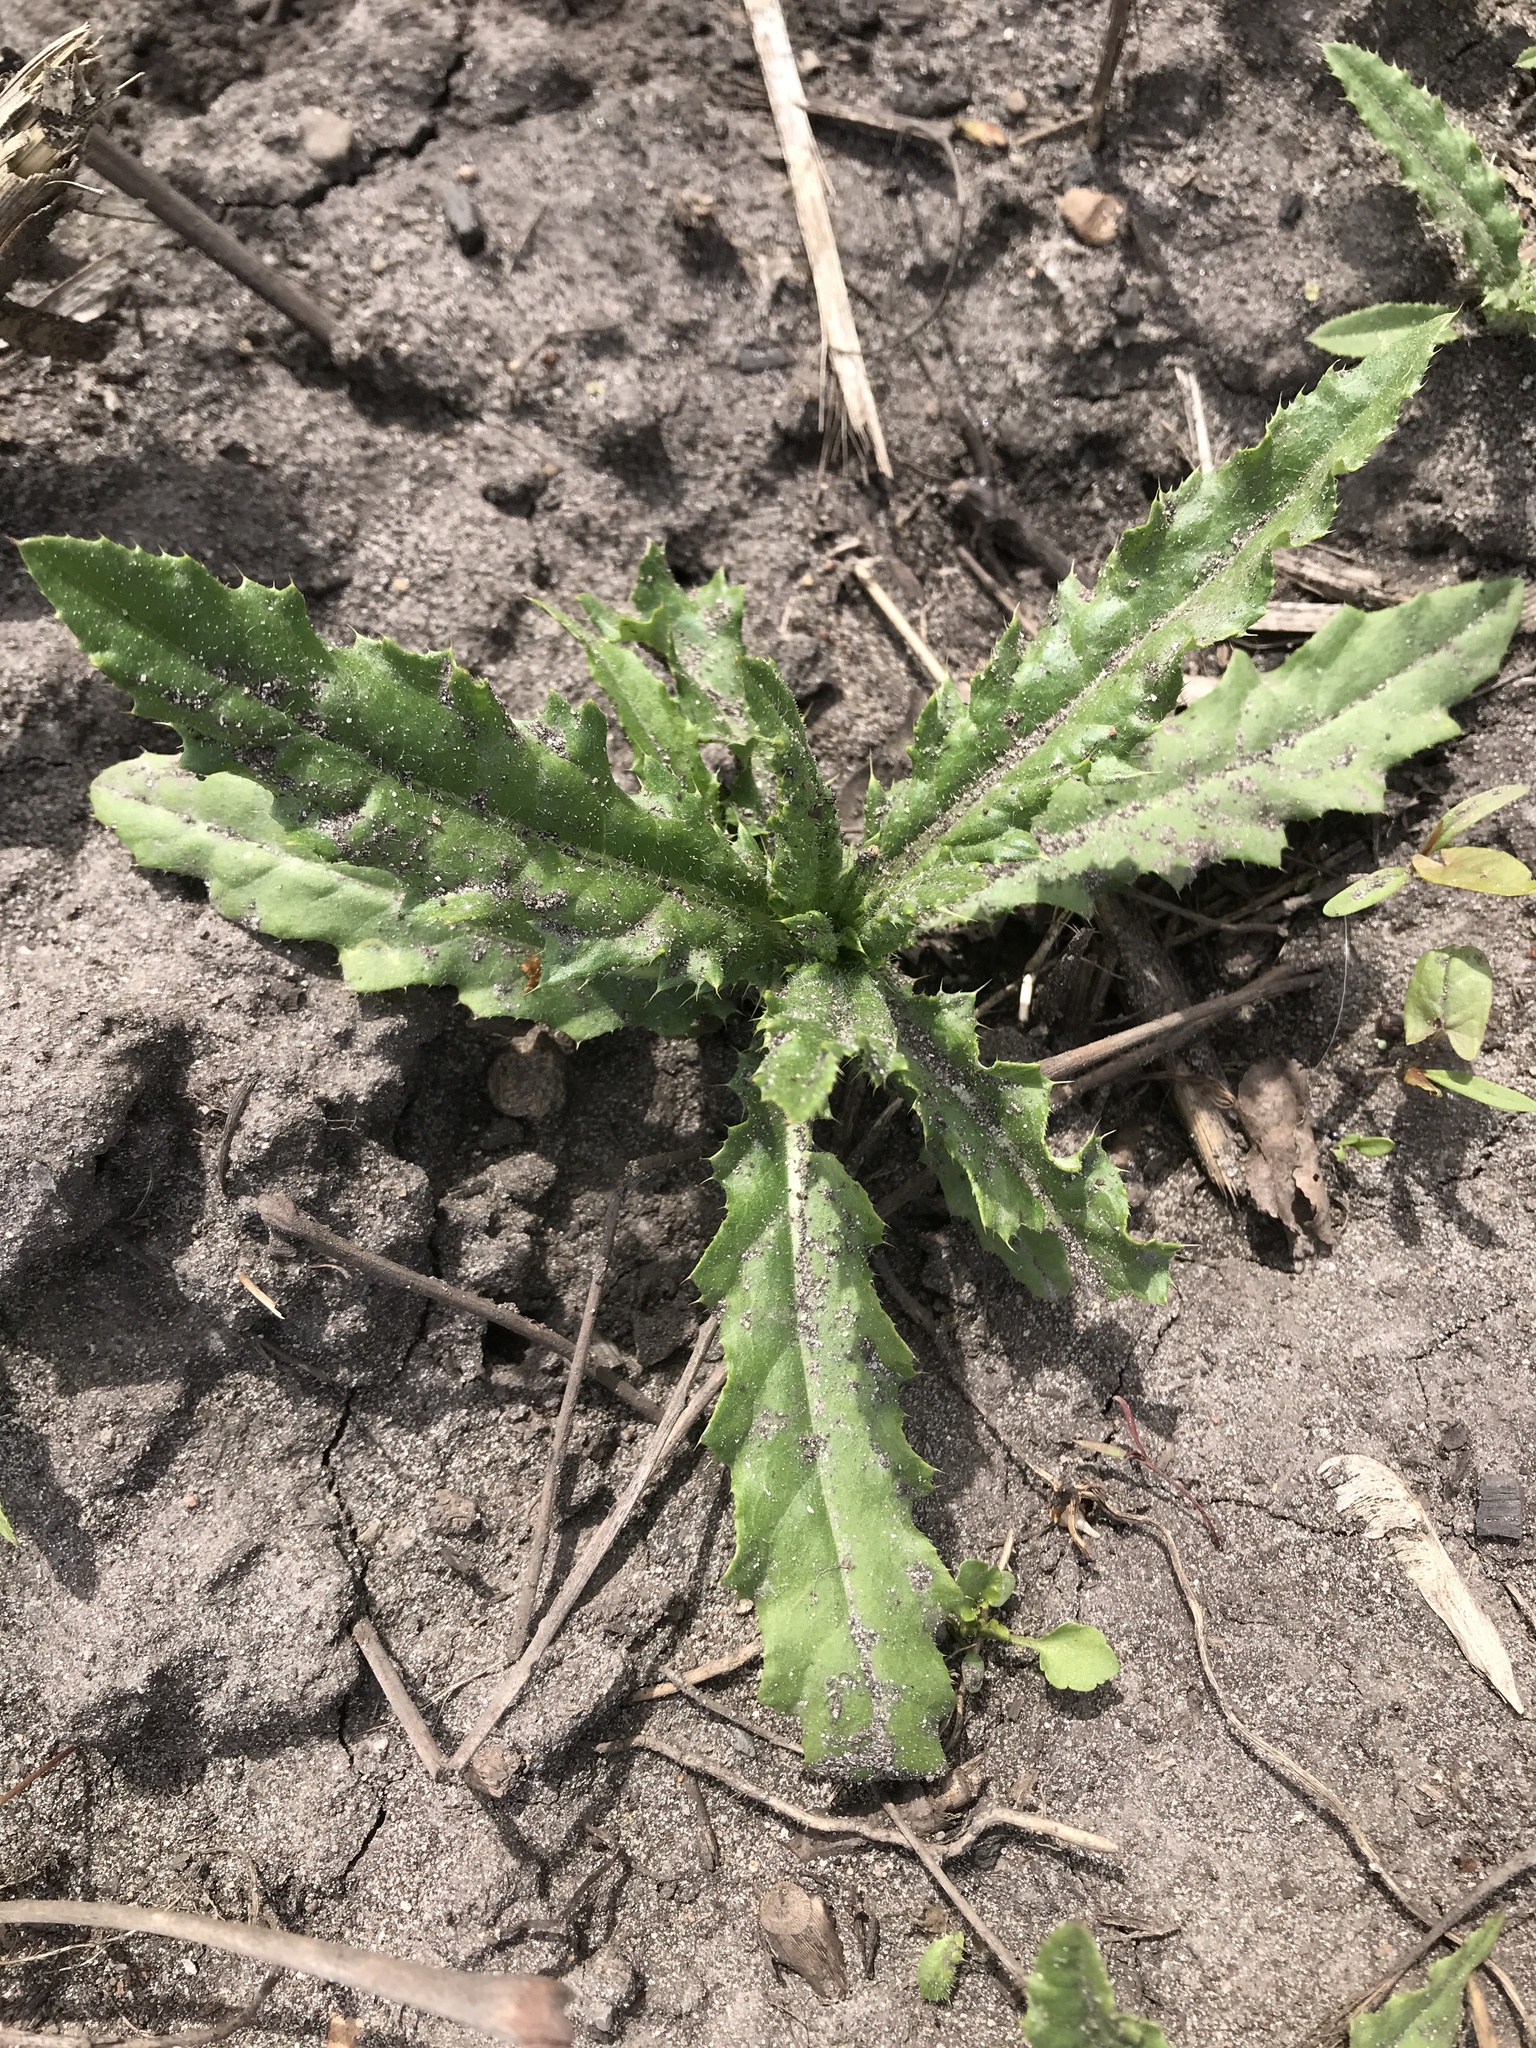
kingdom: Plantae
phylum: Tracheophyta
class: Magnoliopsida
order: Asterales
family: Asteraceae
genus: Cirsium
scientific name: Cirsium arvense
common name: Creeping thistle
